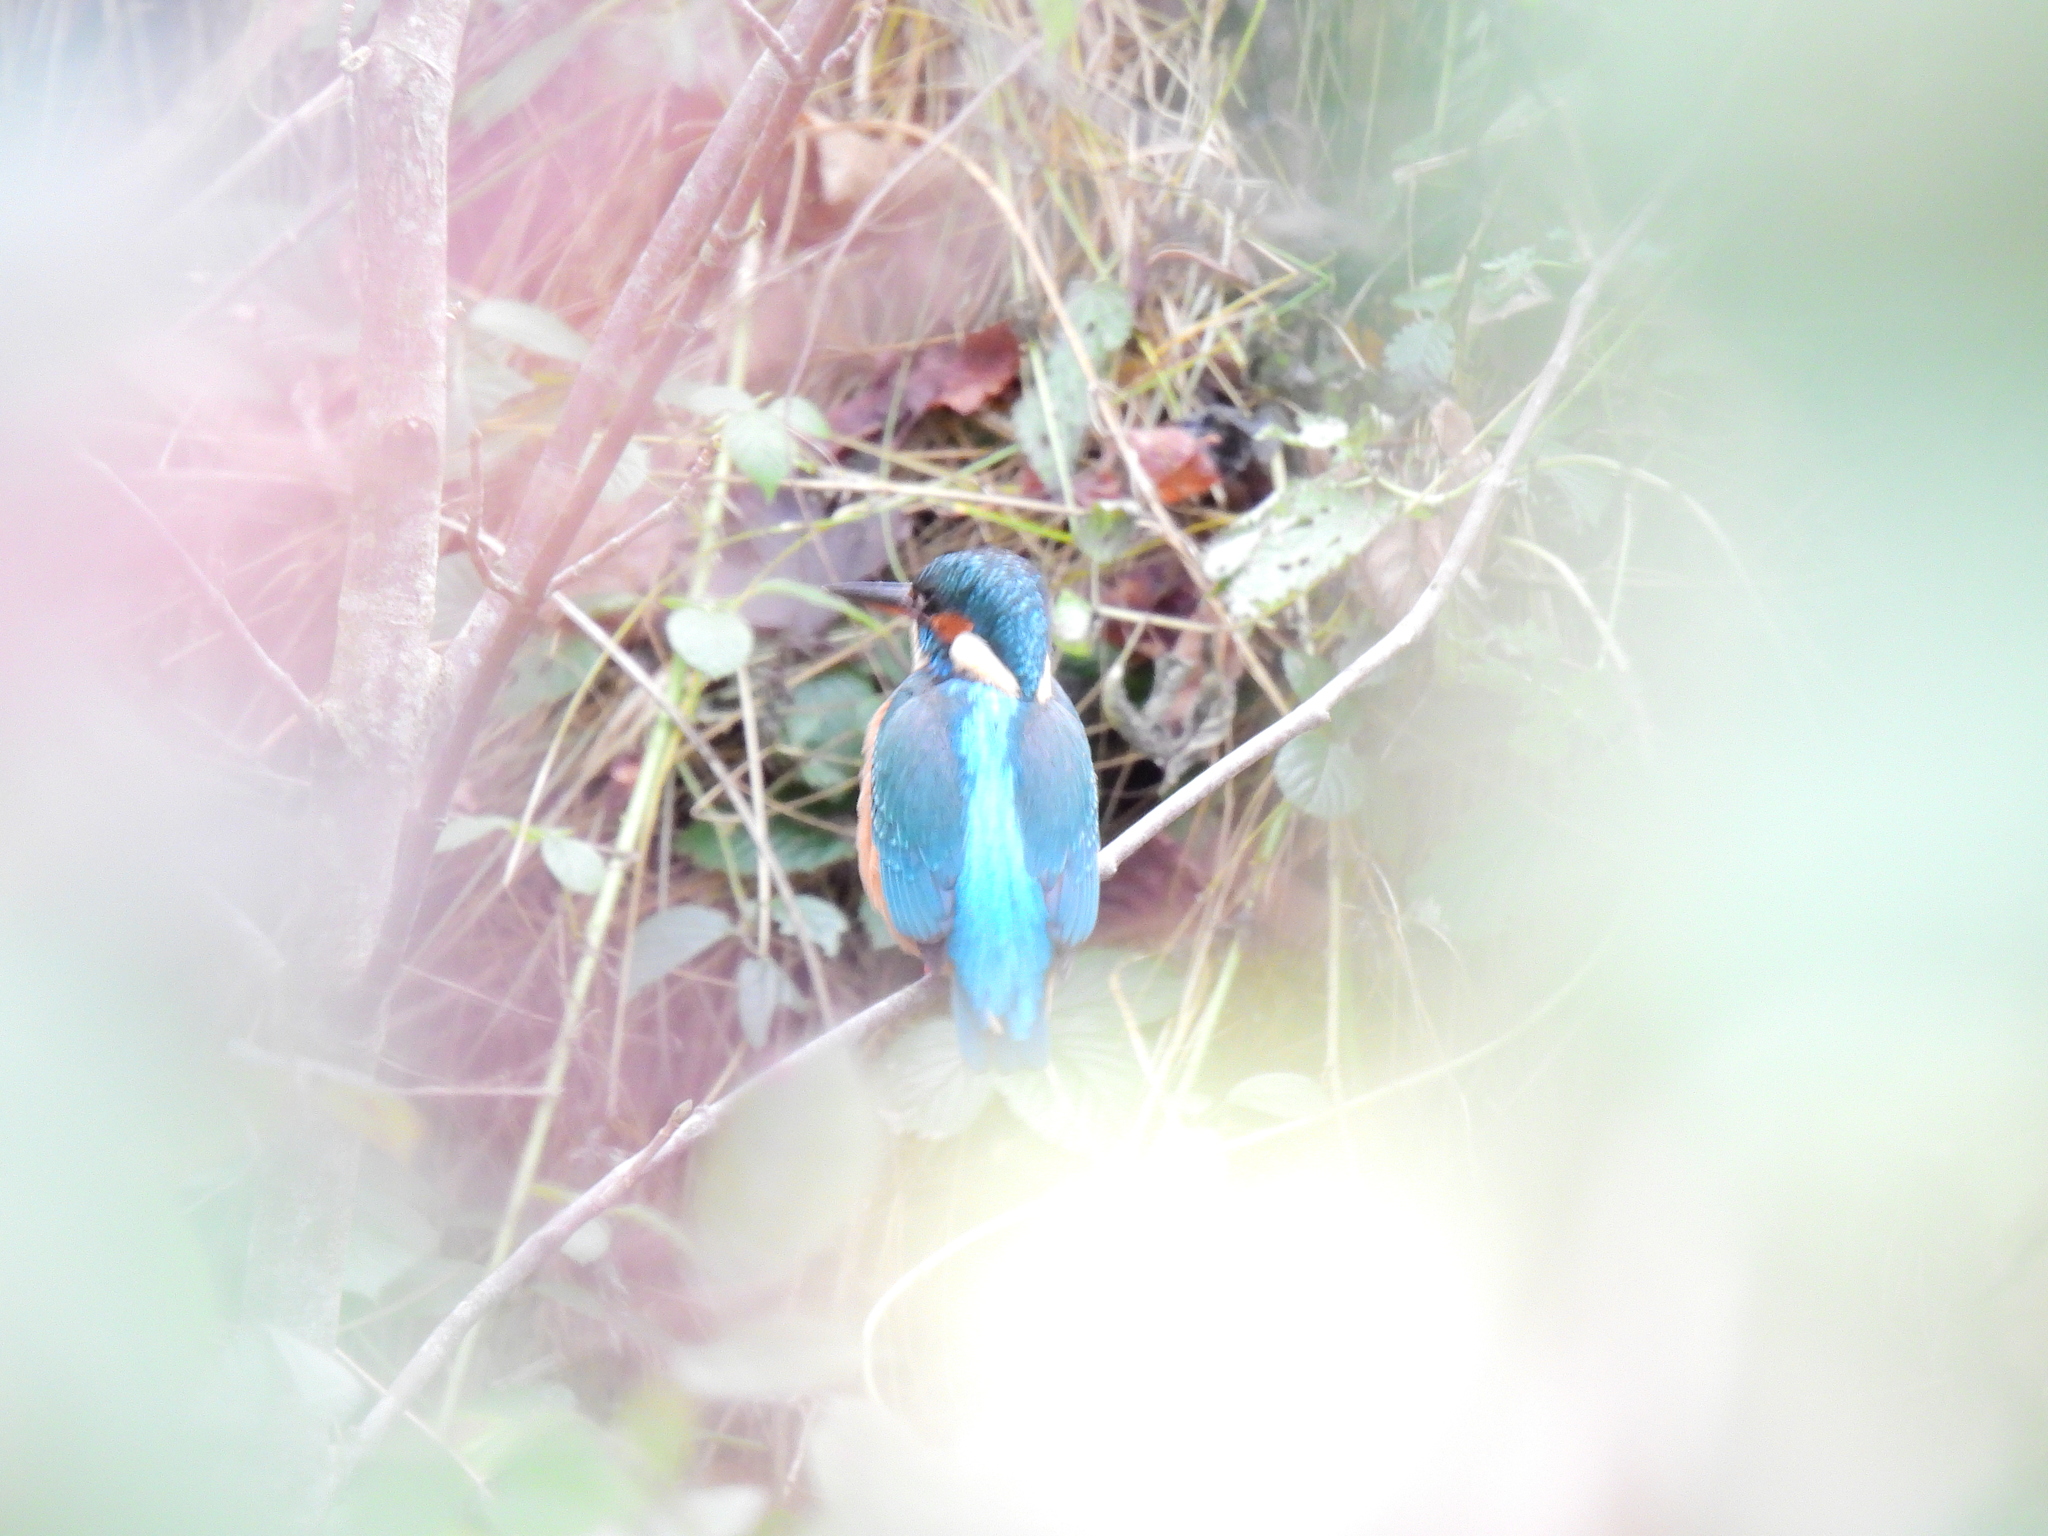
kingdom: Animalia
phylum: Chordata
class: Aves
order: Coraciiformes
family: Alcedinidae
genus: Alcedo
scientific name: Alcedo atthis
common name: Common kingfisher
